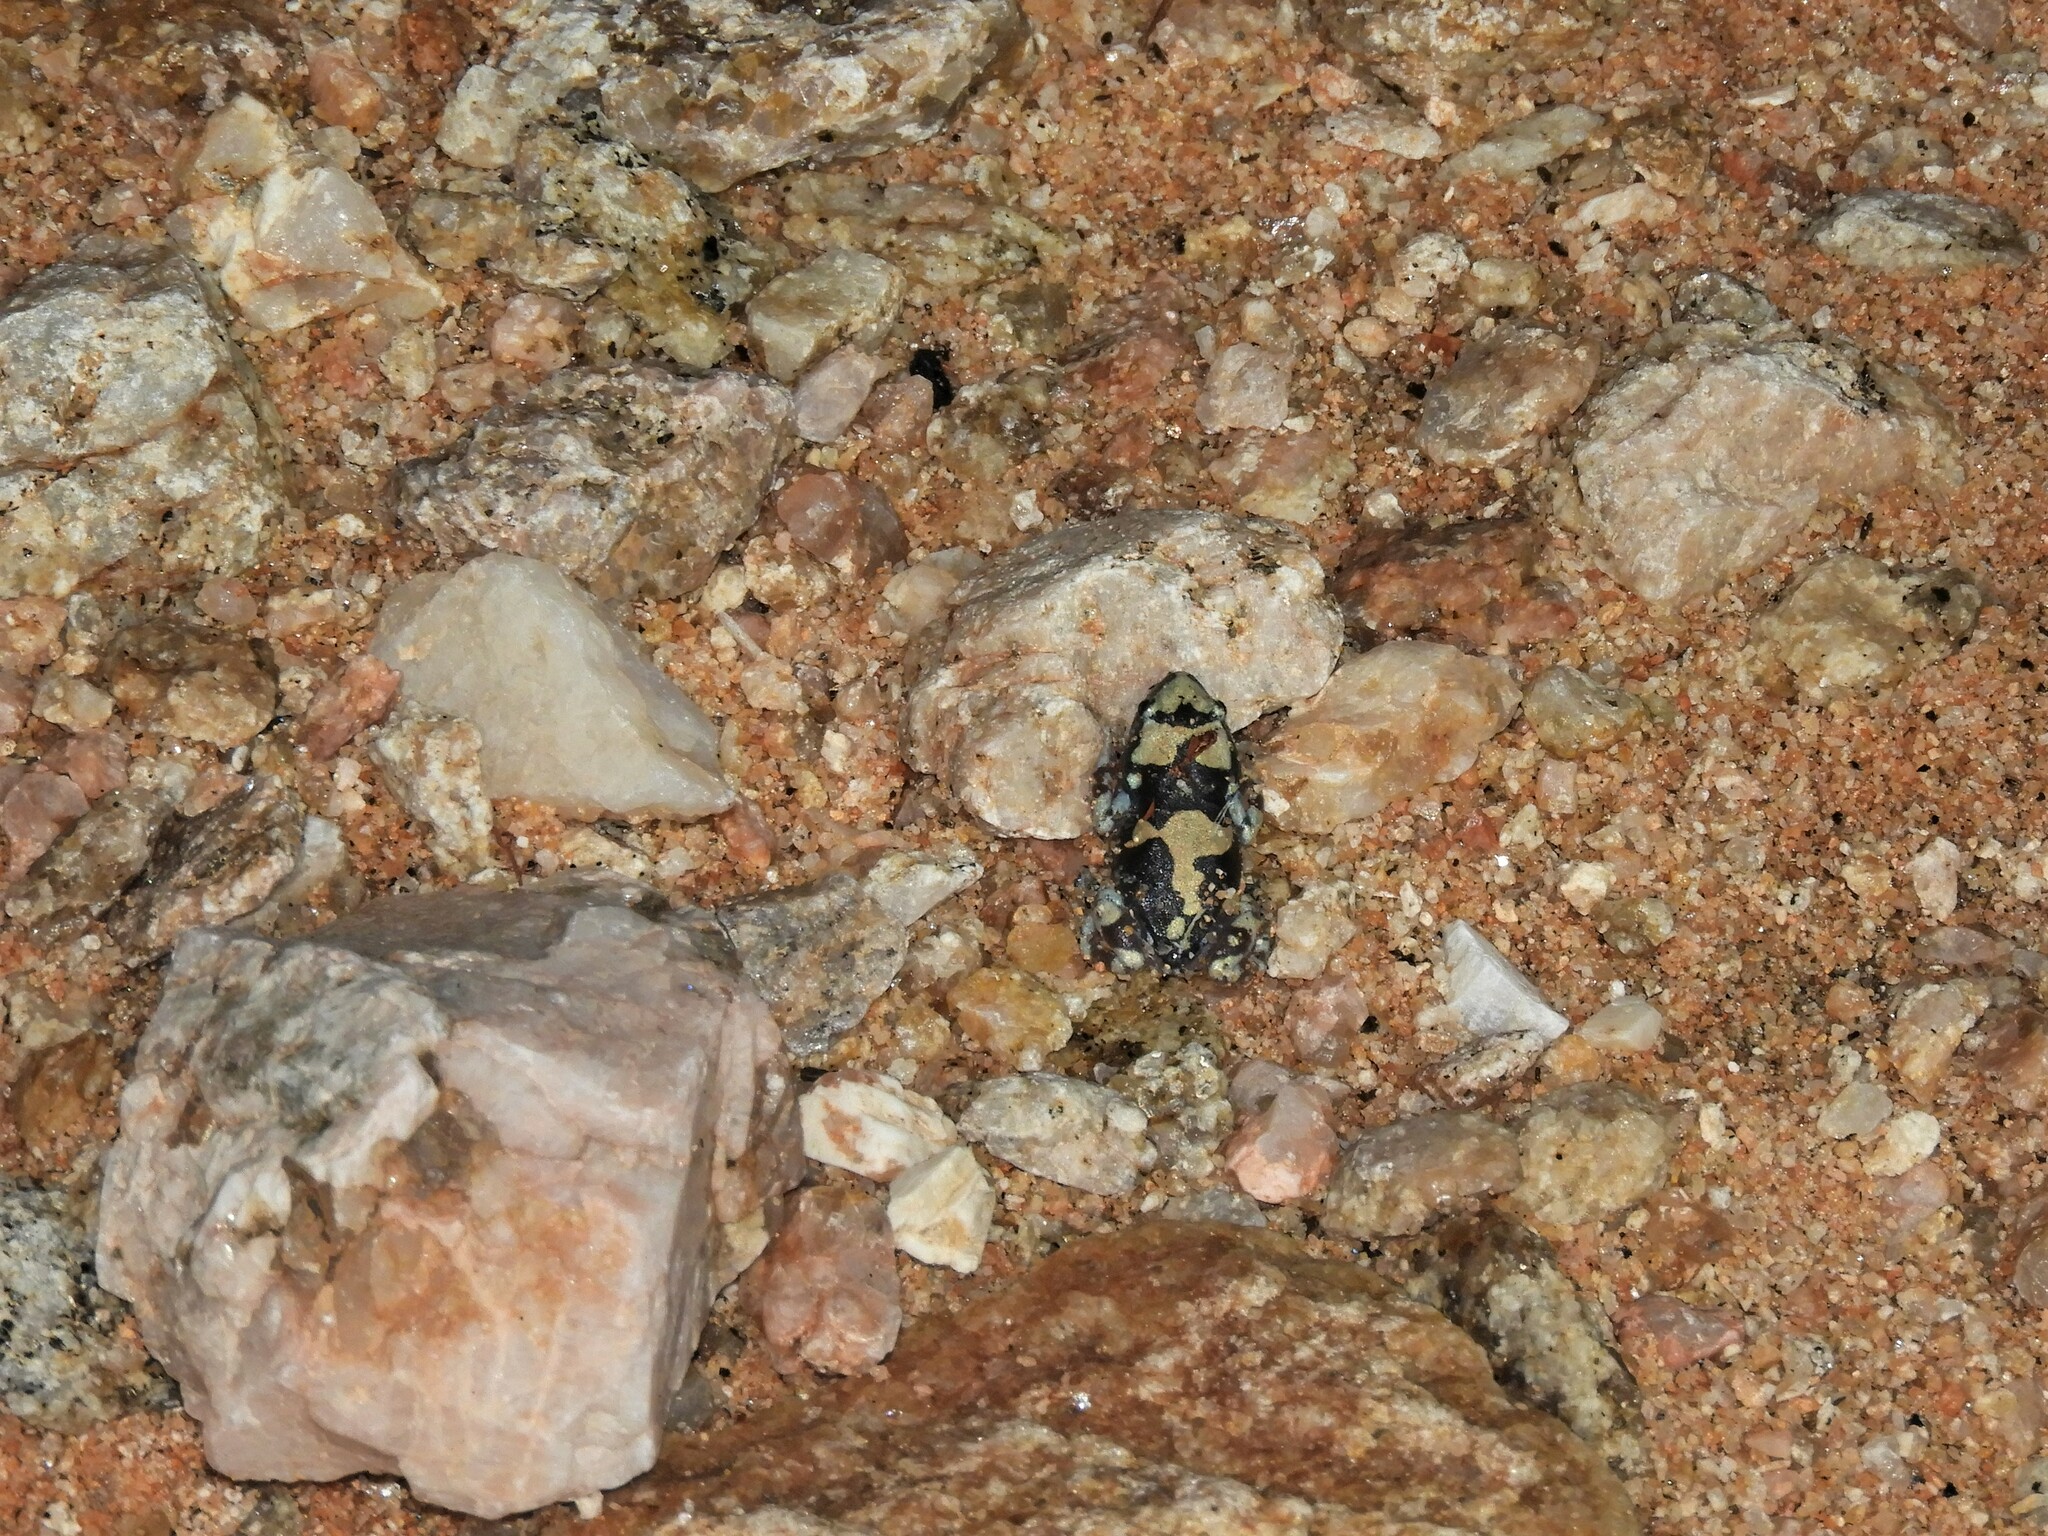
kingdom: Animalia
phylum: Chordata
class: Amphibia
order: Anura
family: Microhylidae
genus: Phrynomantis
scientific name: Phrynomantis annectens
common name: Marbled rubber frog
